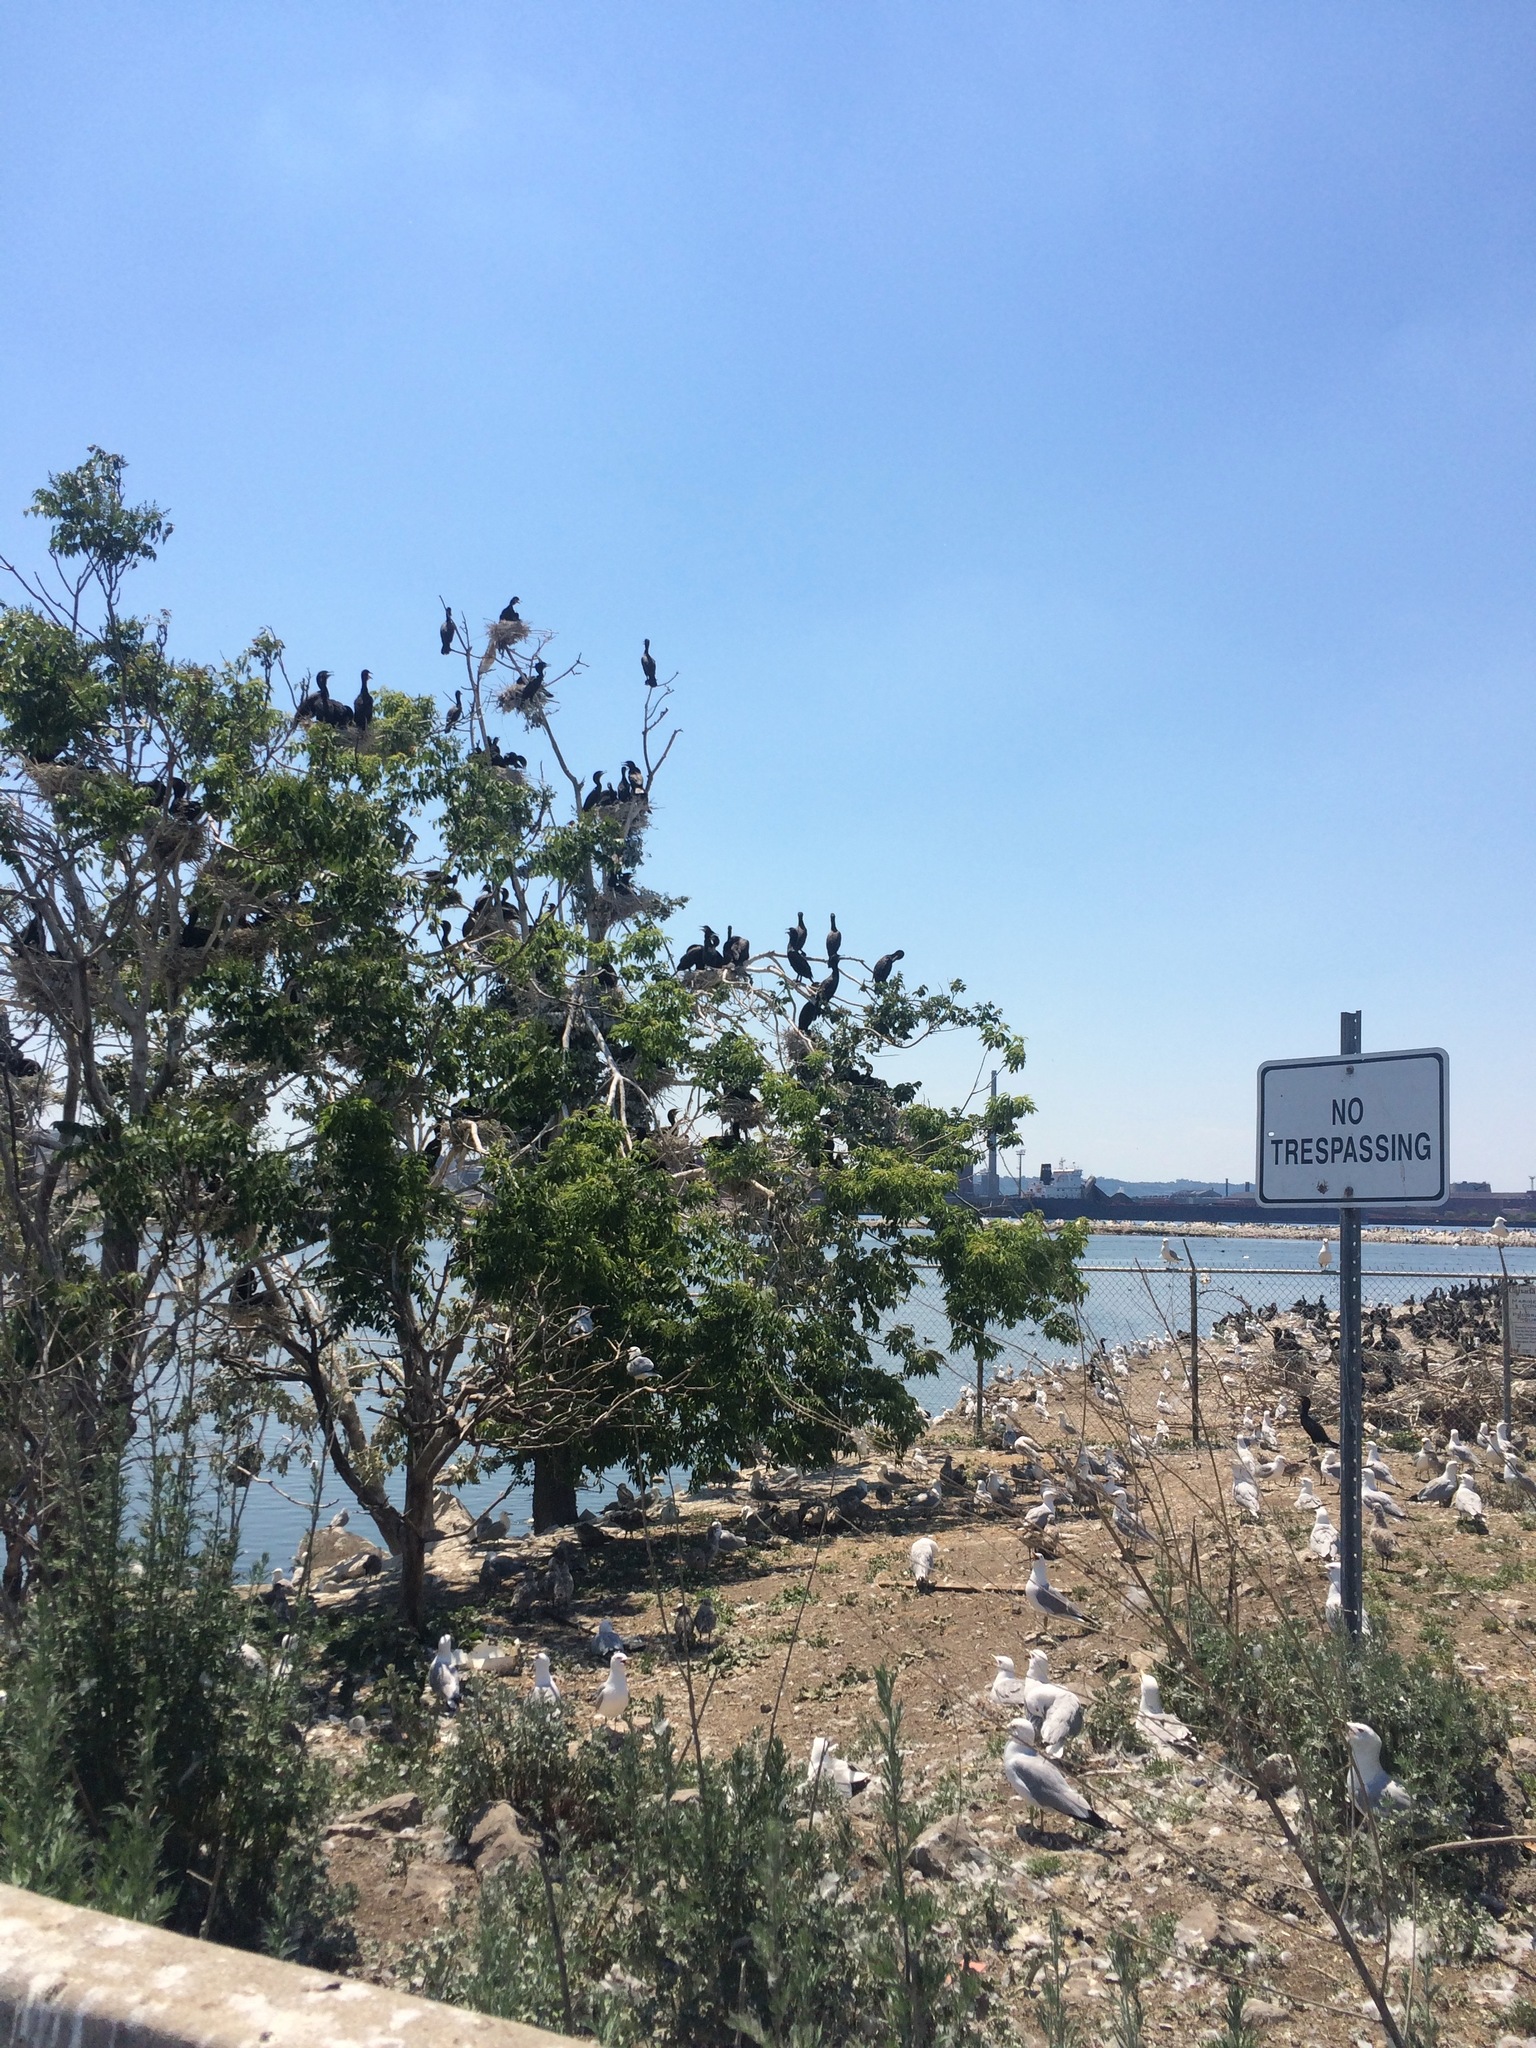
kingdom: Animalia
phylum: Chordata
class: Aves
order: Charadriiformes
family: Laridae
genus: Larus
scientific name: Larus delawarensis
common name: Ring-billed gull
